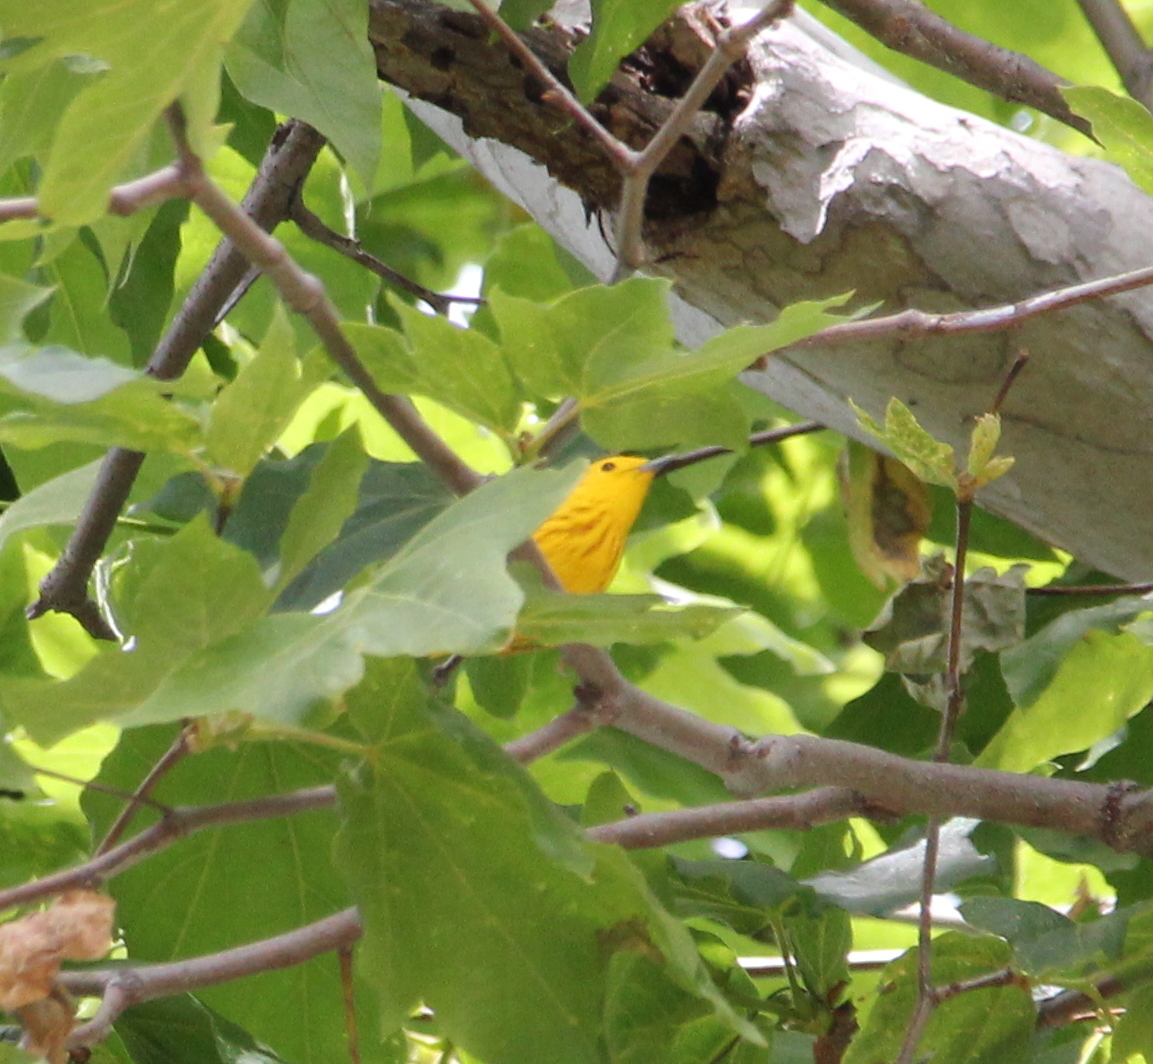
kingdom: Animalia
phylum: Chordata
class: Aves
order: Passeriformes
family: Parulidae
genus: Setophaga
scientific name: Setophaga petechia
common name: Yellow warbler
